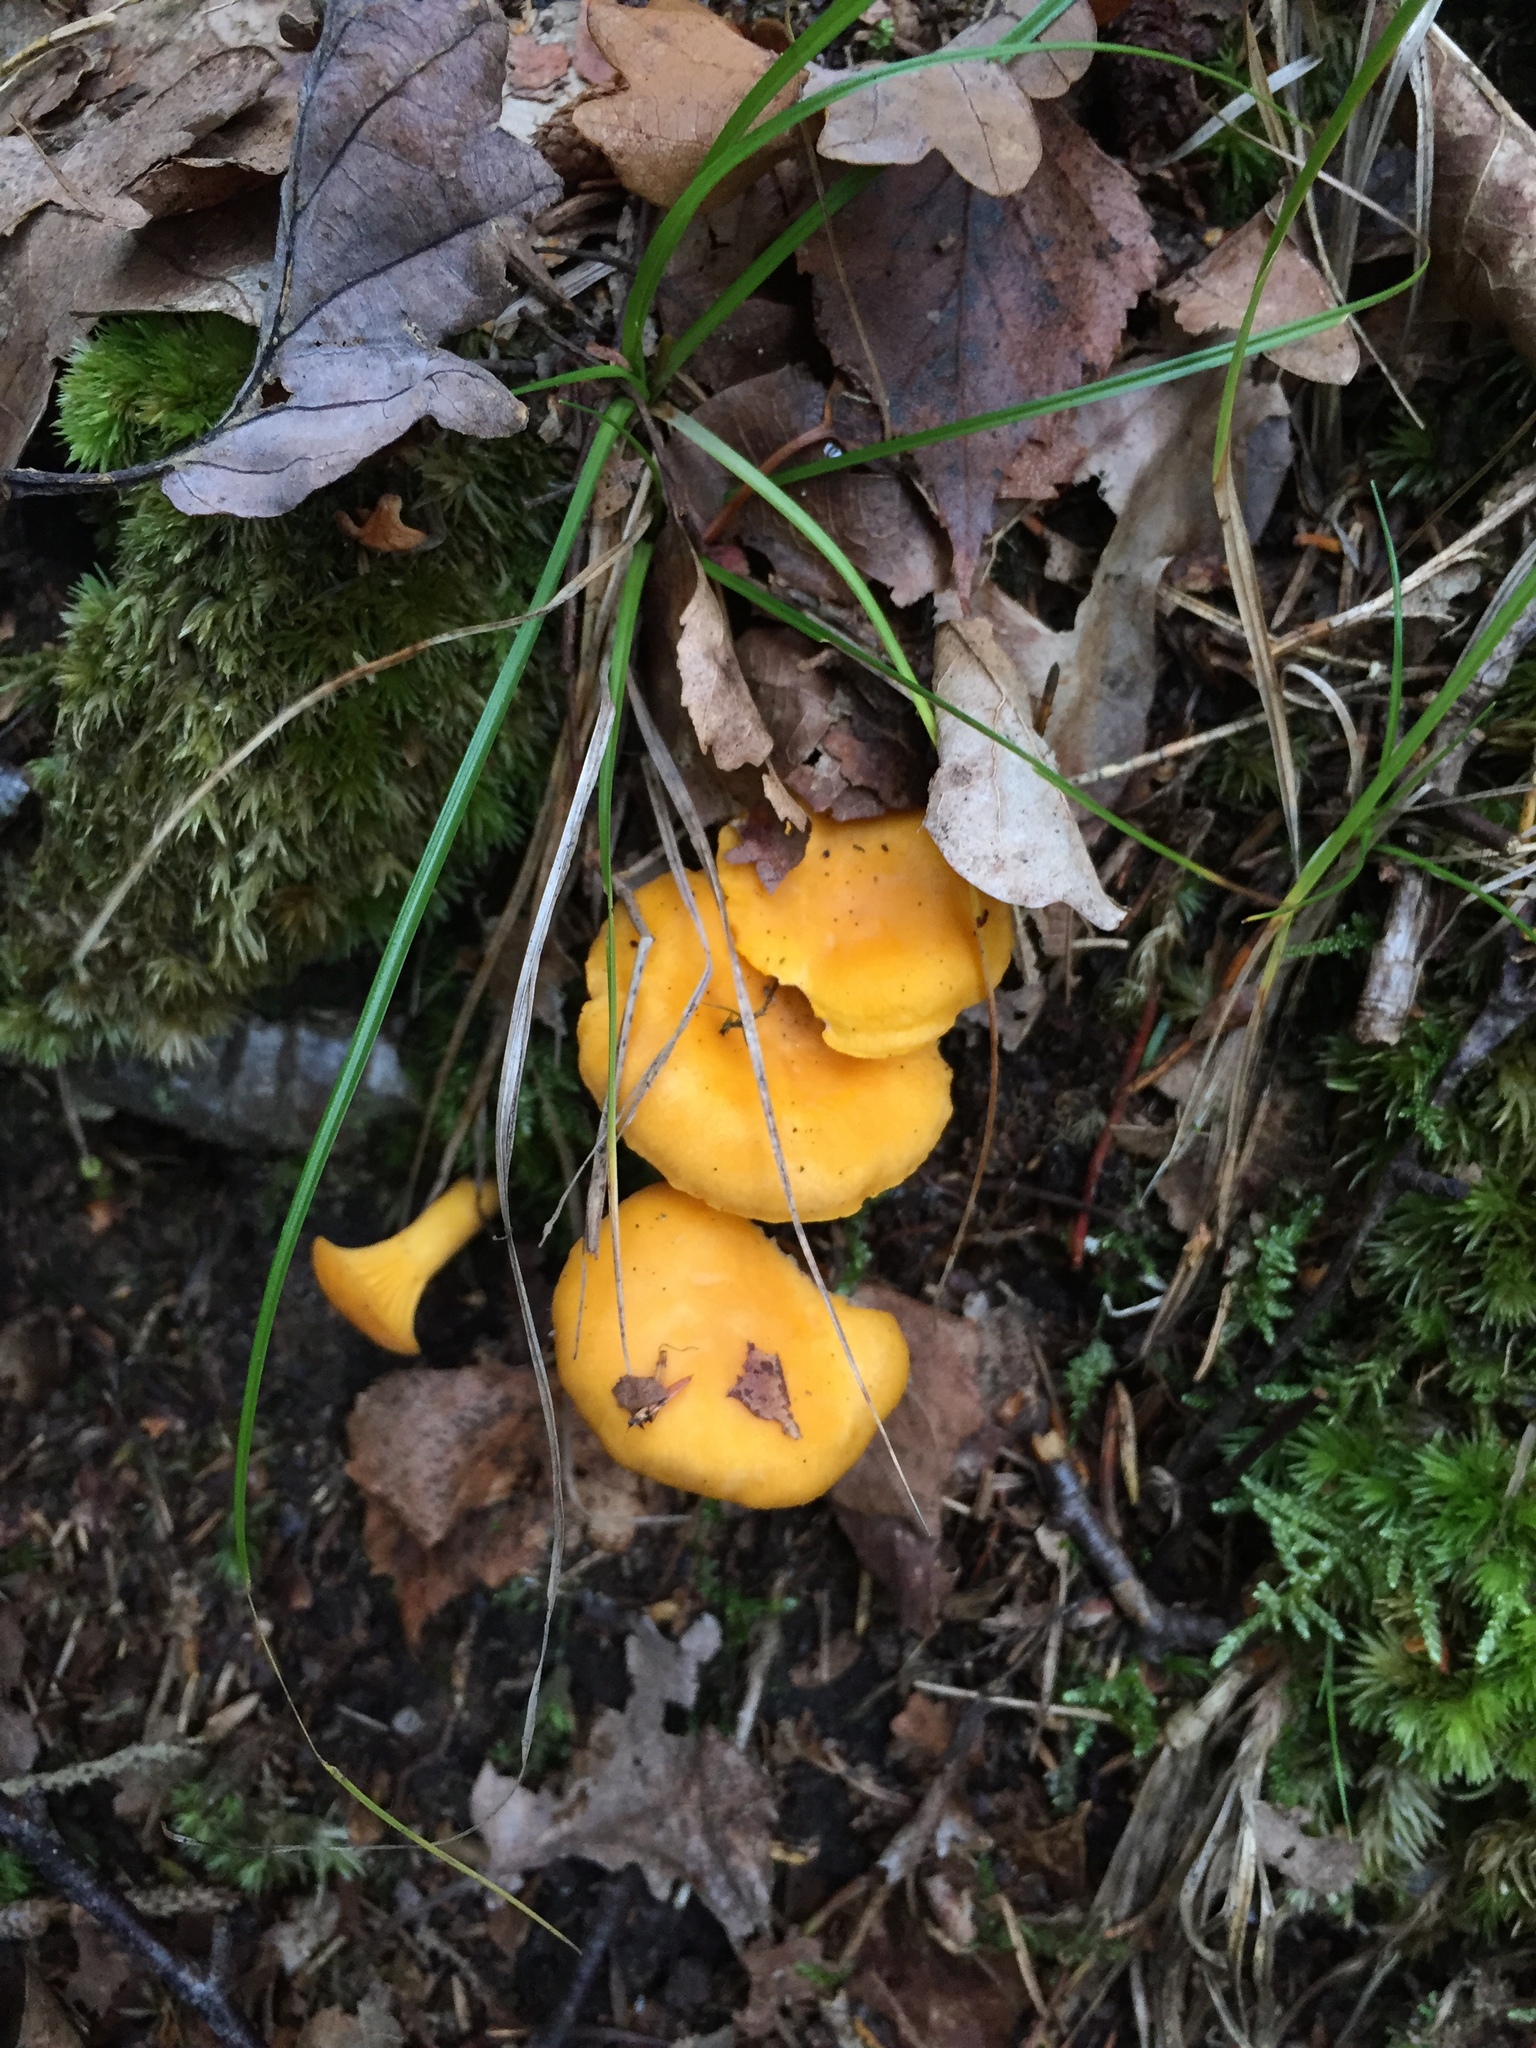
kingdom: Fungi
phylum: Basidiomycota
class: Agaricomycetes
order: Cantharellales
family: Hydnaceae
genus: Cantharellus
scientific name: Cantharellus cibarius
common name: Chanterelle
